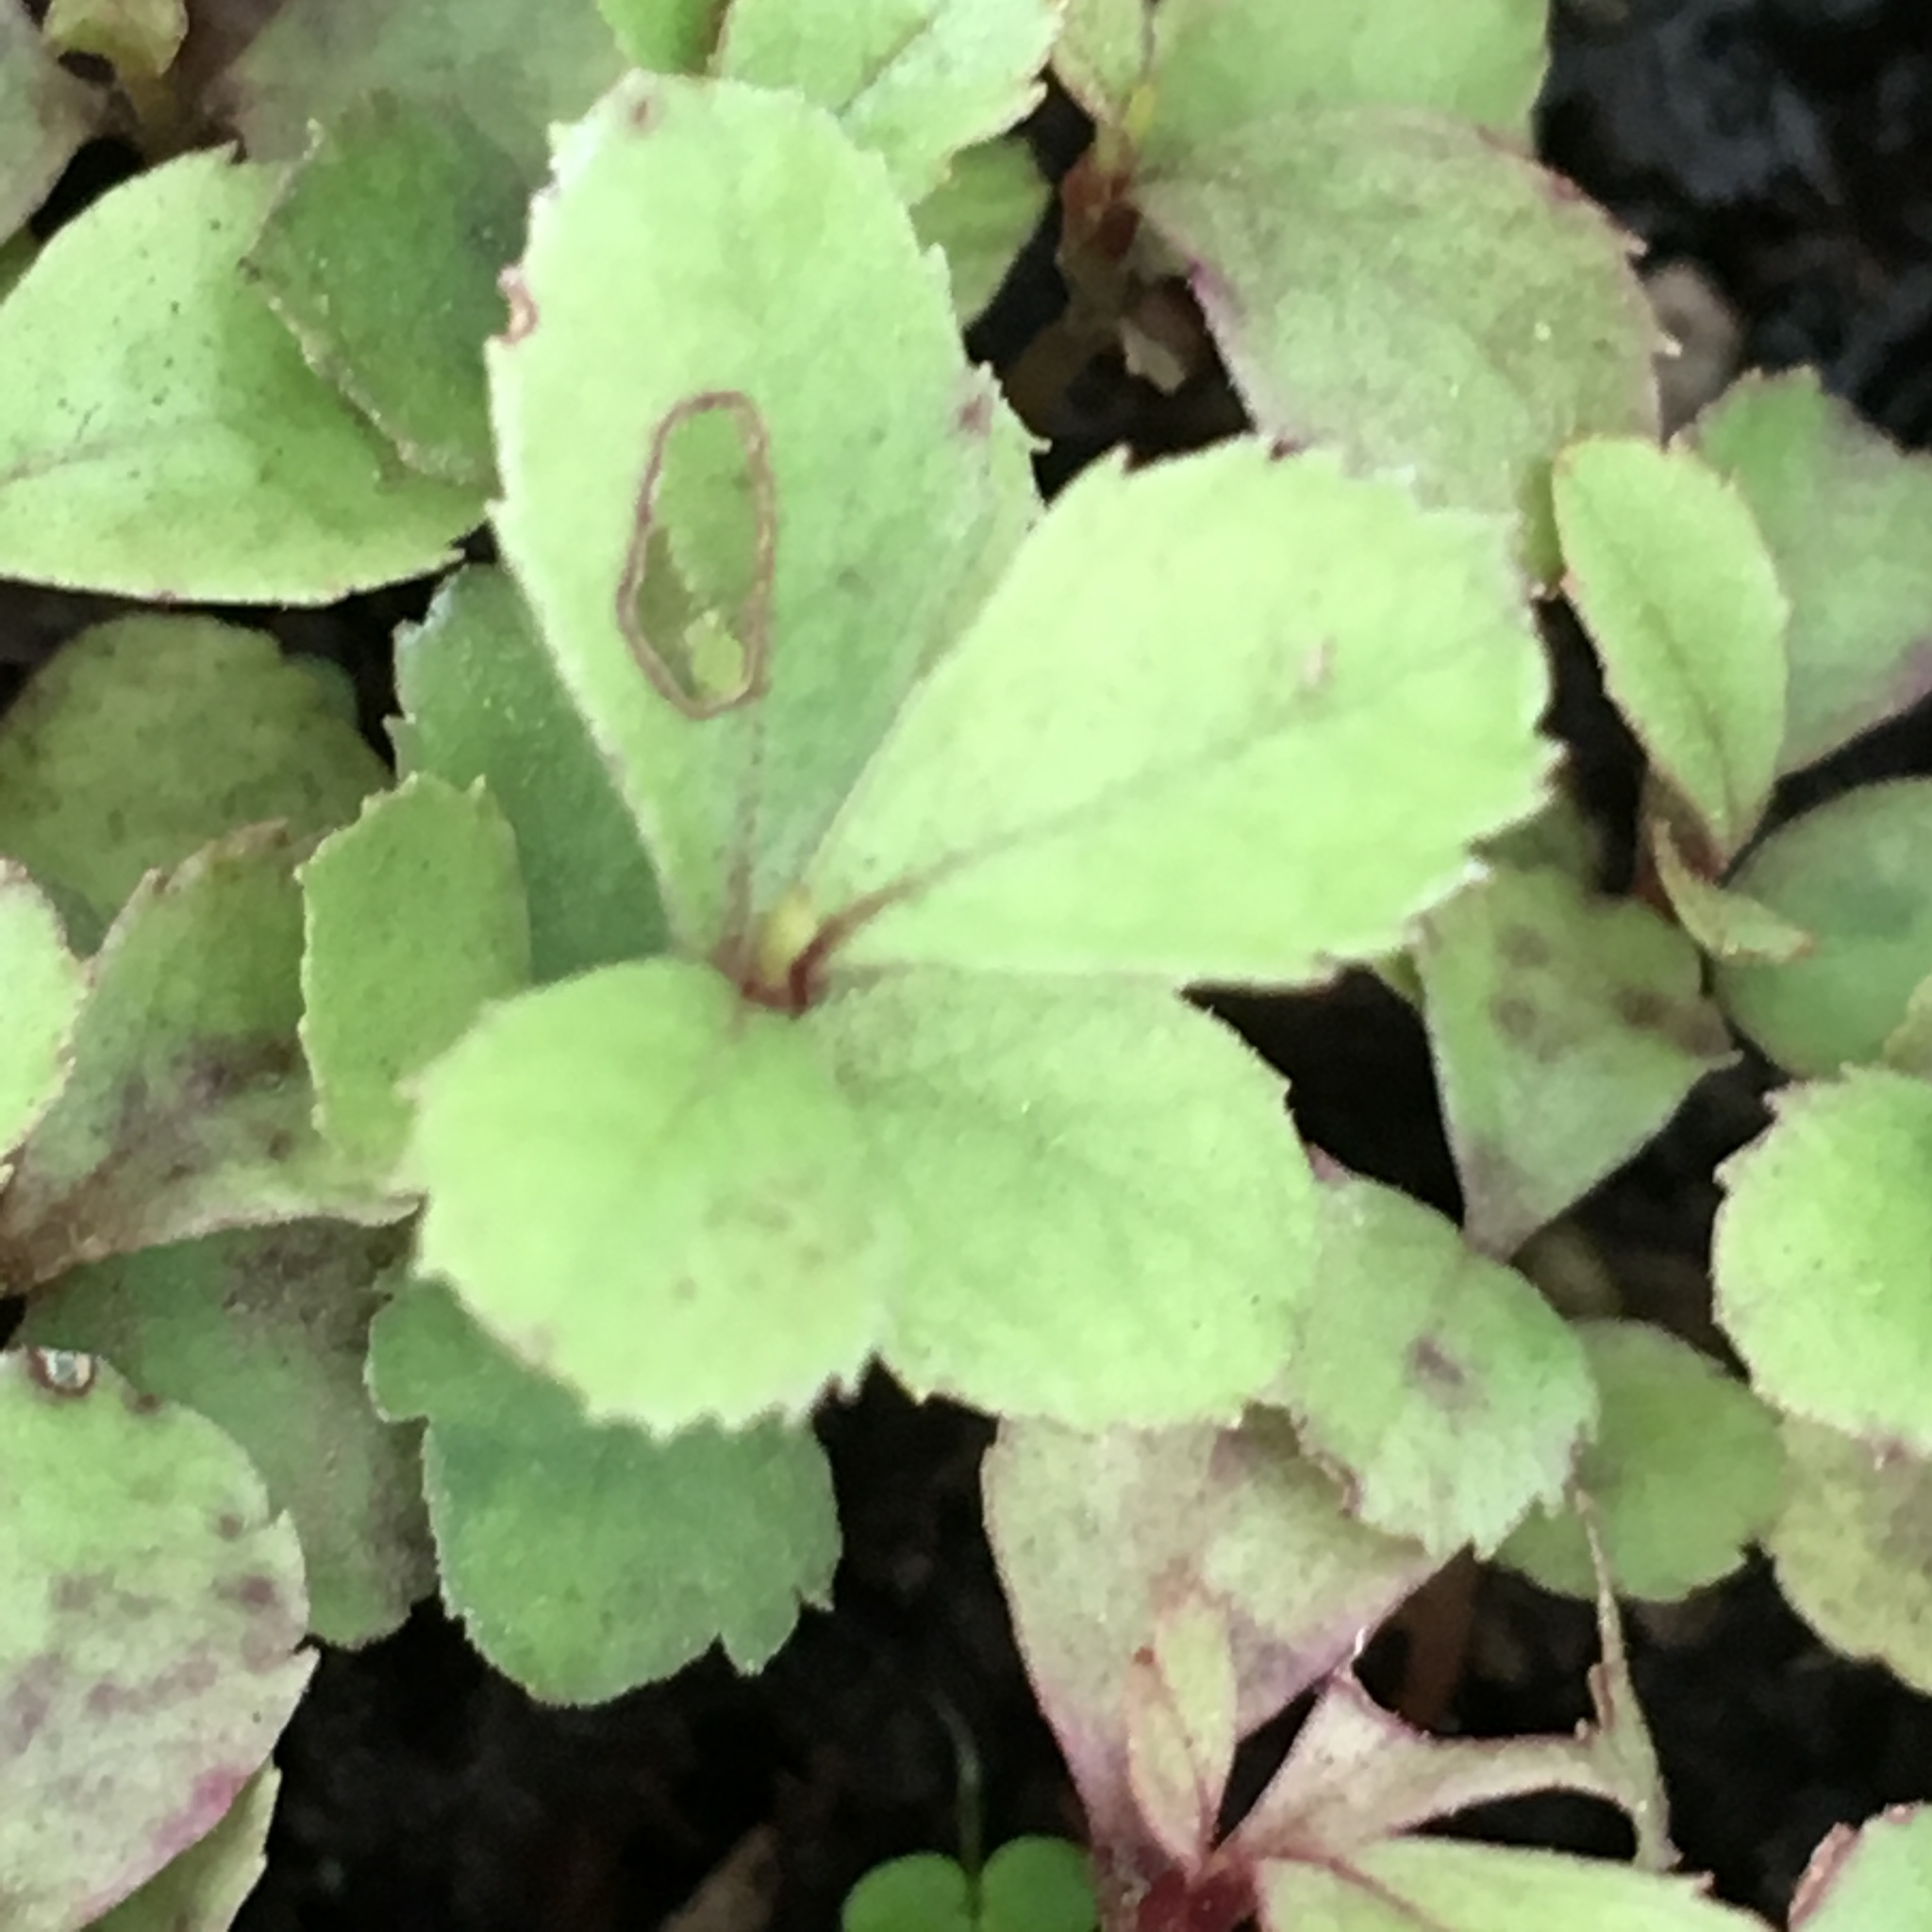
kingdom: Plantae
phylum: Tracheophyta
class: Magnoliopsida
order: Ericales
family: Primulaceae
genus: Myrsine
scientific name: Myrsine australis
